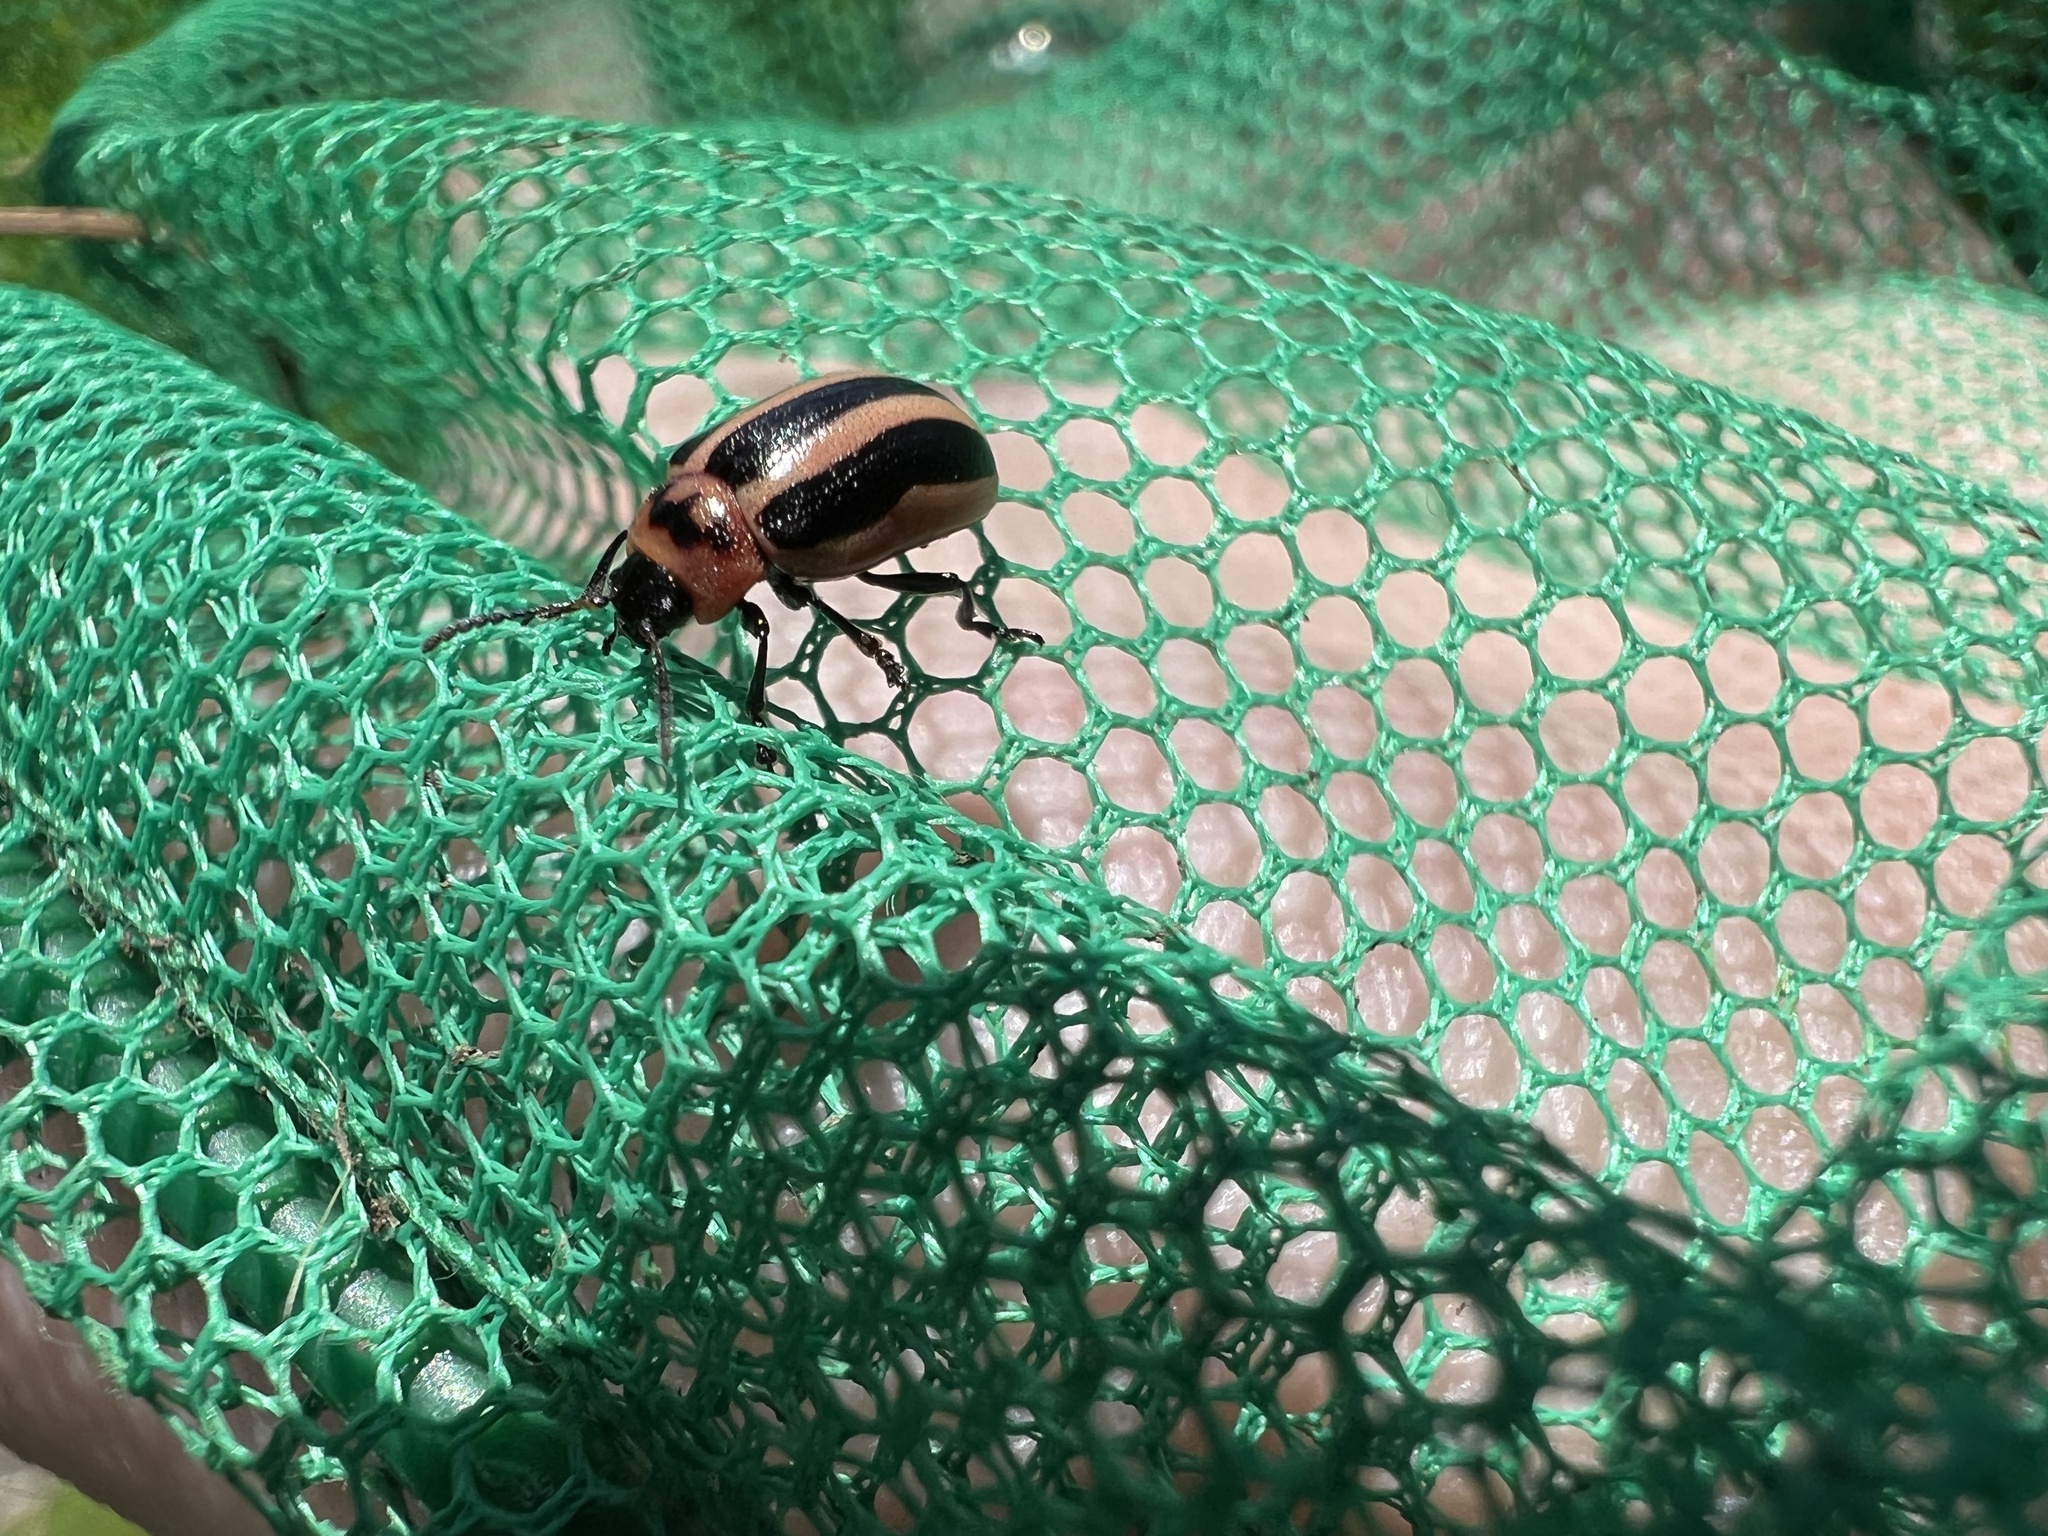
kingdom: Animalia
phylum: Arthropoda
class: Insecta
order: Coleoptera
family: Chrysomelidae
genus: Calligrapha
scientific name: Calligrapha californica
